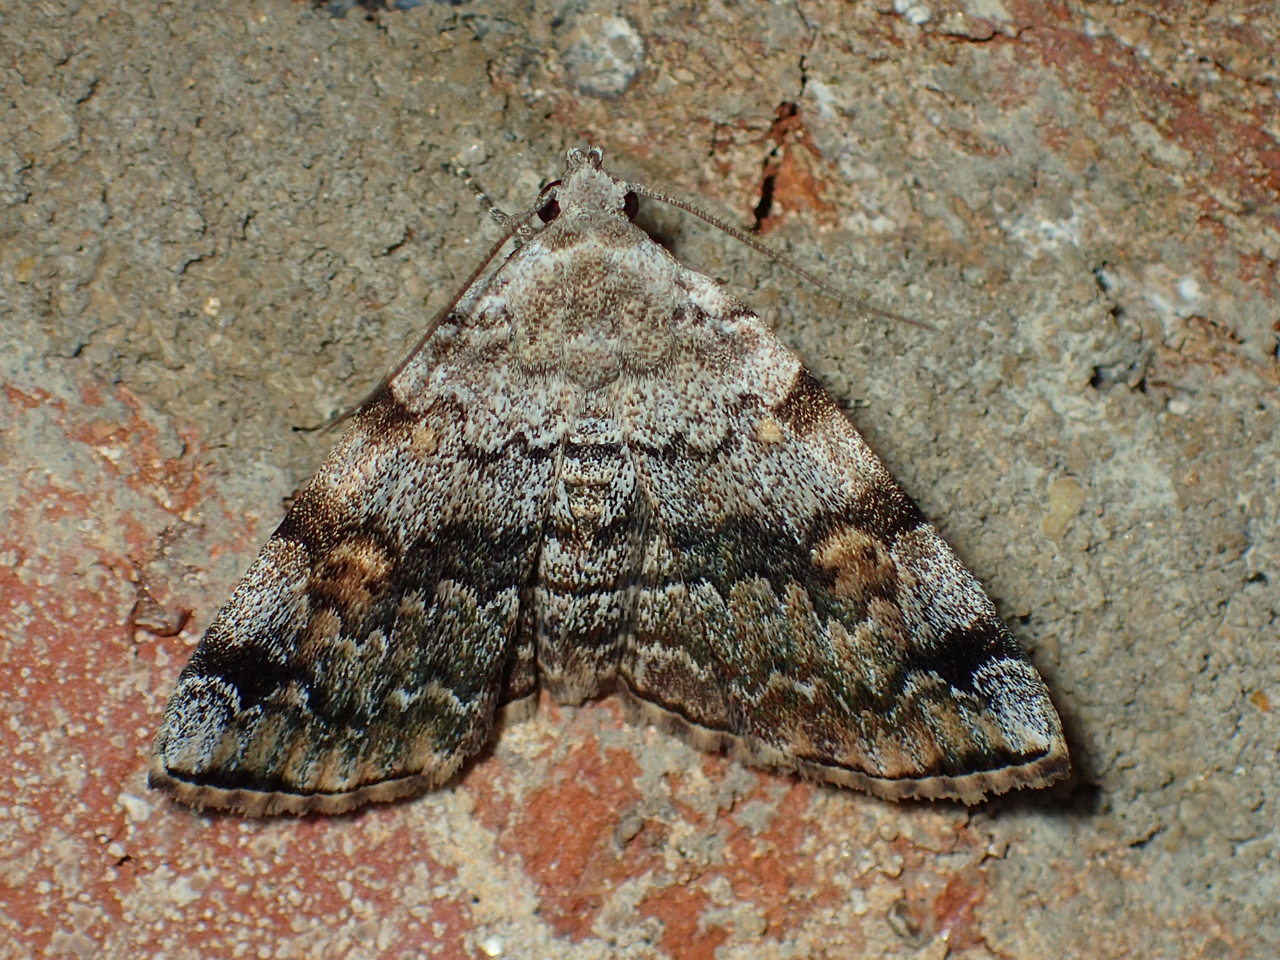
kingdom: Animalia
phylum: Arthropoda
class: Insecta
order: Lepidoptera
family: Erebidae
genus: Idia
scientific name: Idia americalis
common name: American idia moth
